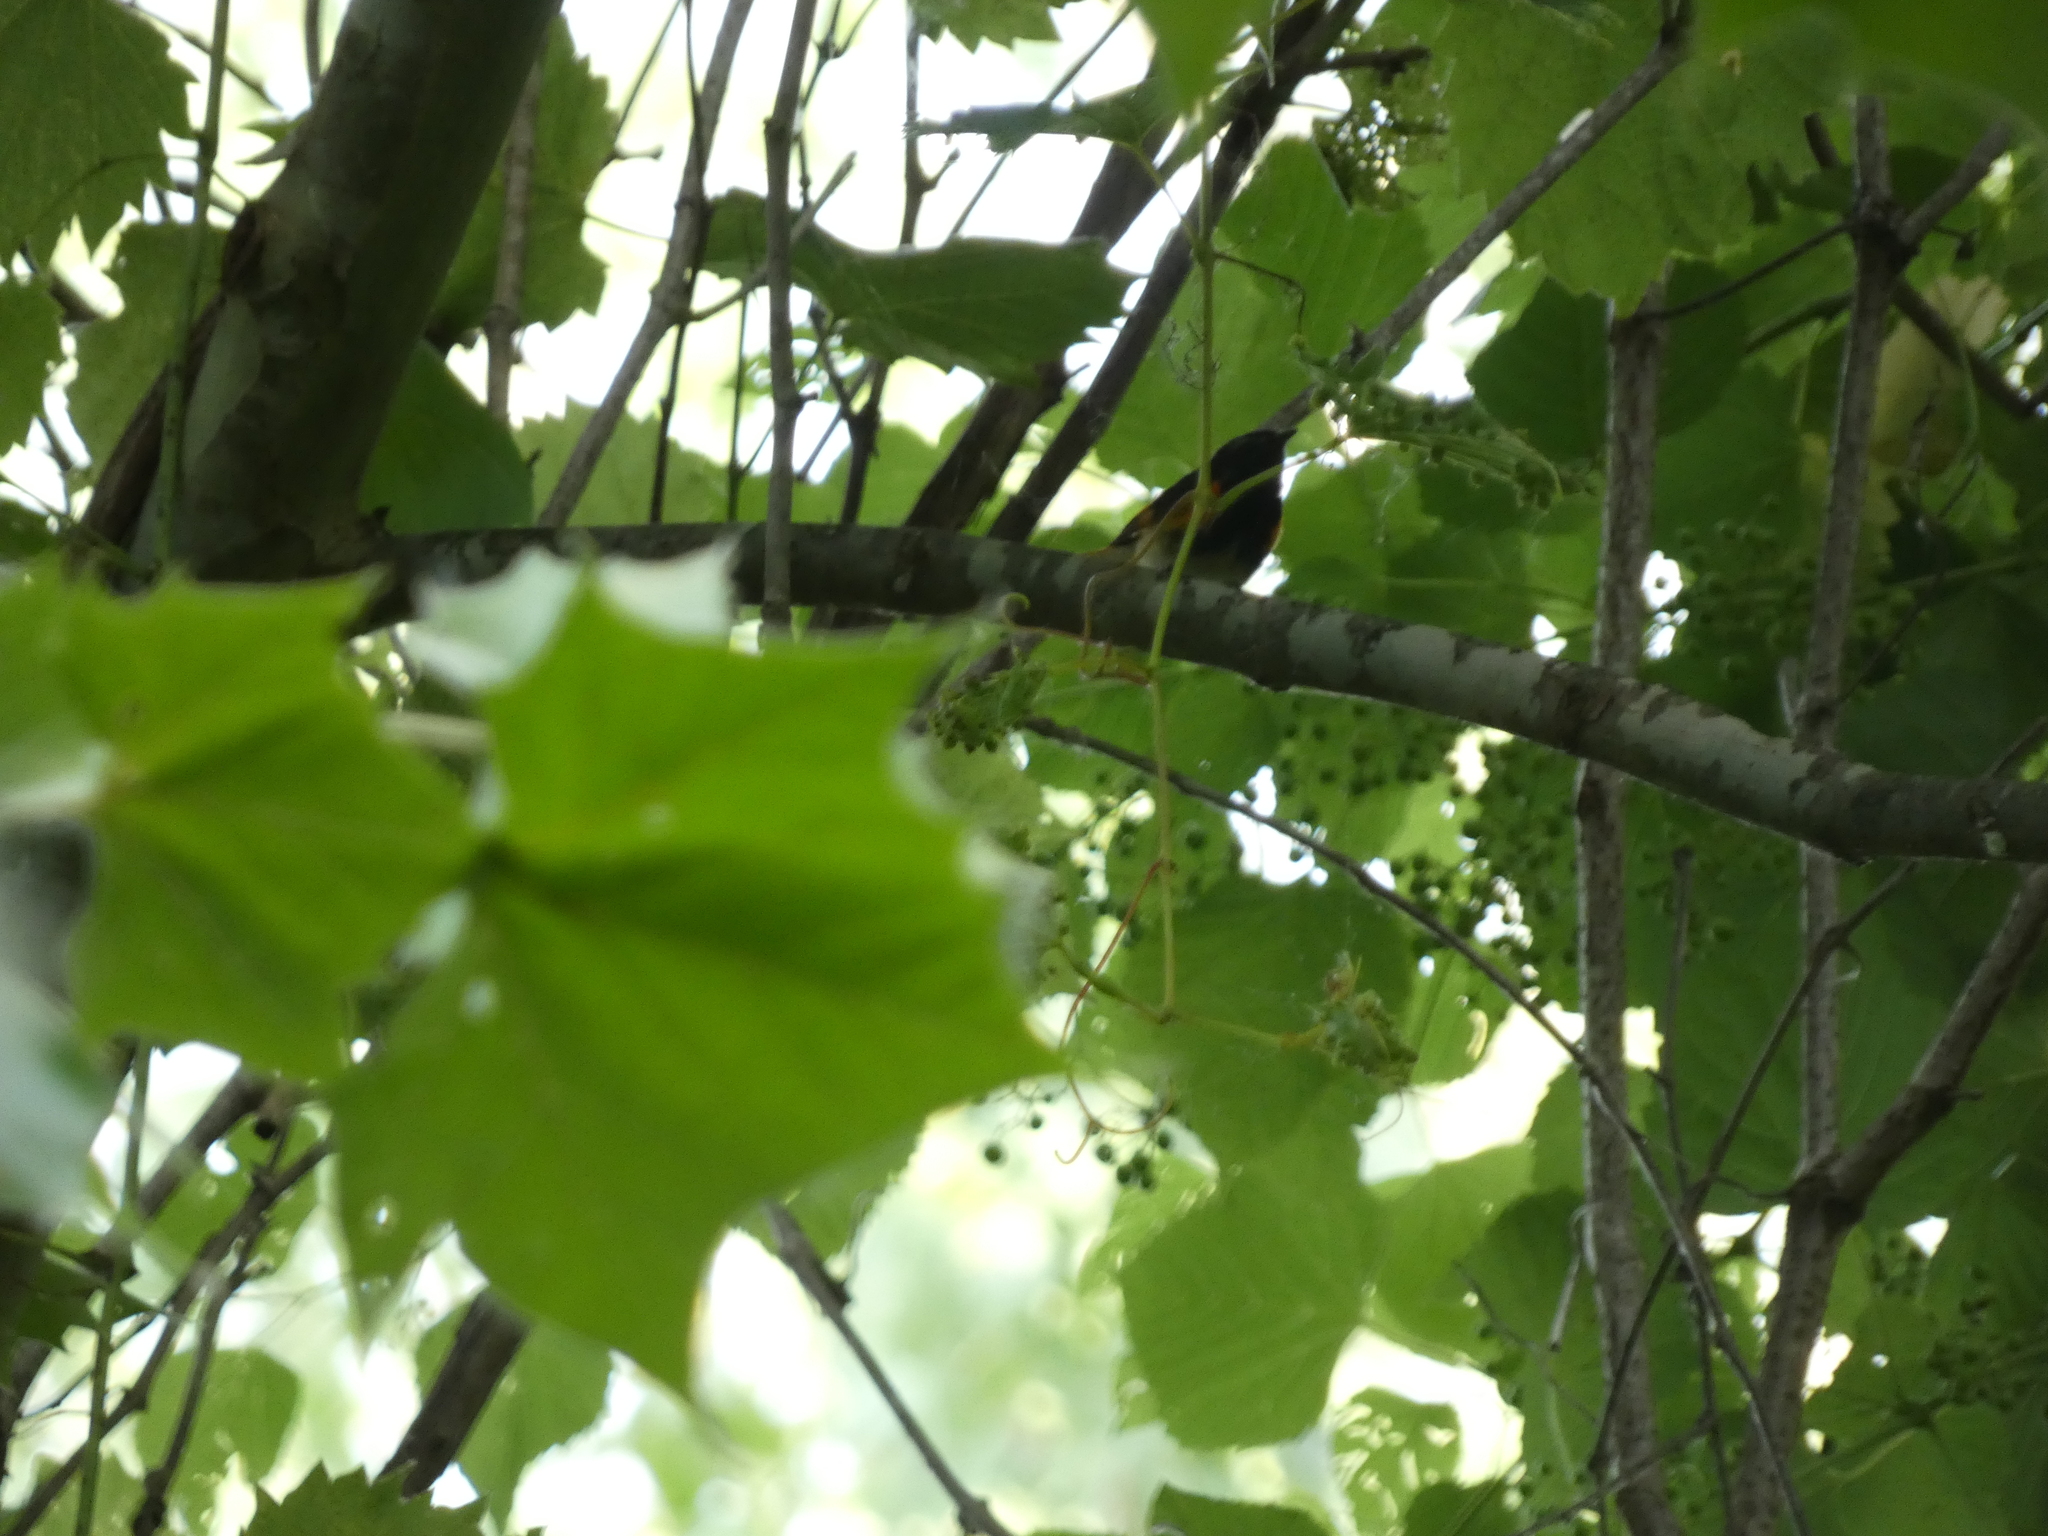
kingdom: Animalia
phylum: Chordata
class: Aves
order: Passeriformes
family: Parulidae
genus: Setophaga
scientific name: Setophaga ruticilla
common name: American redstart
